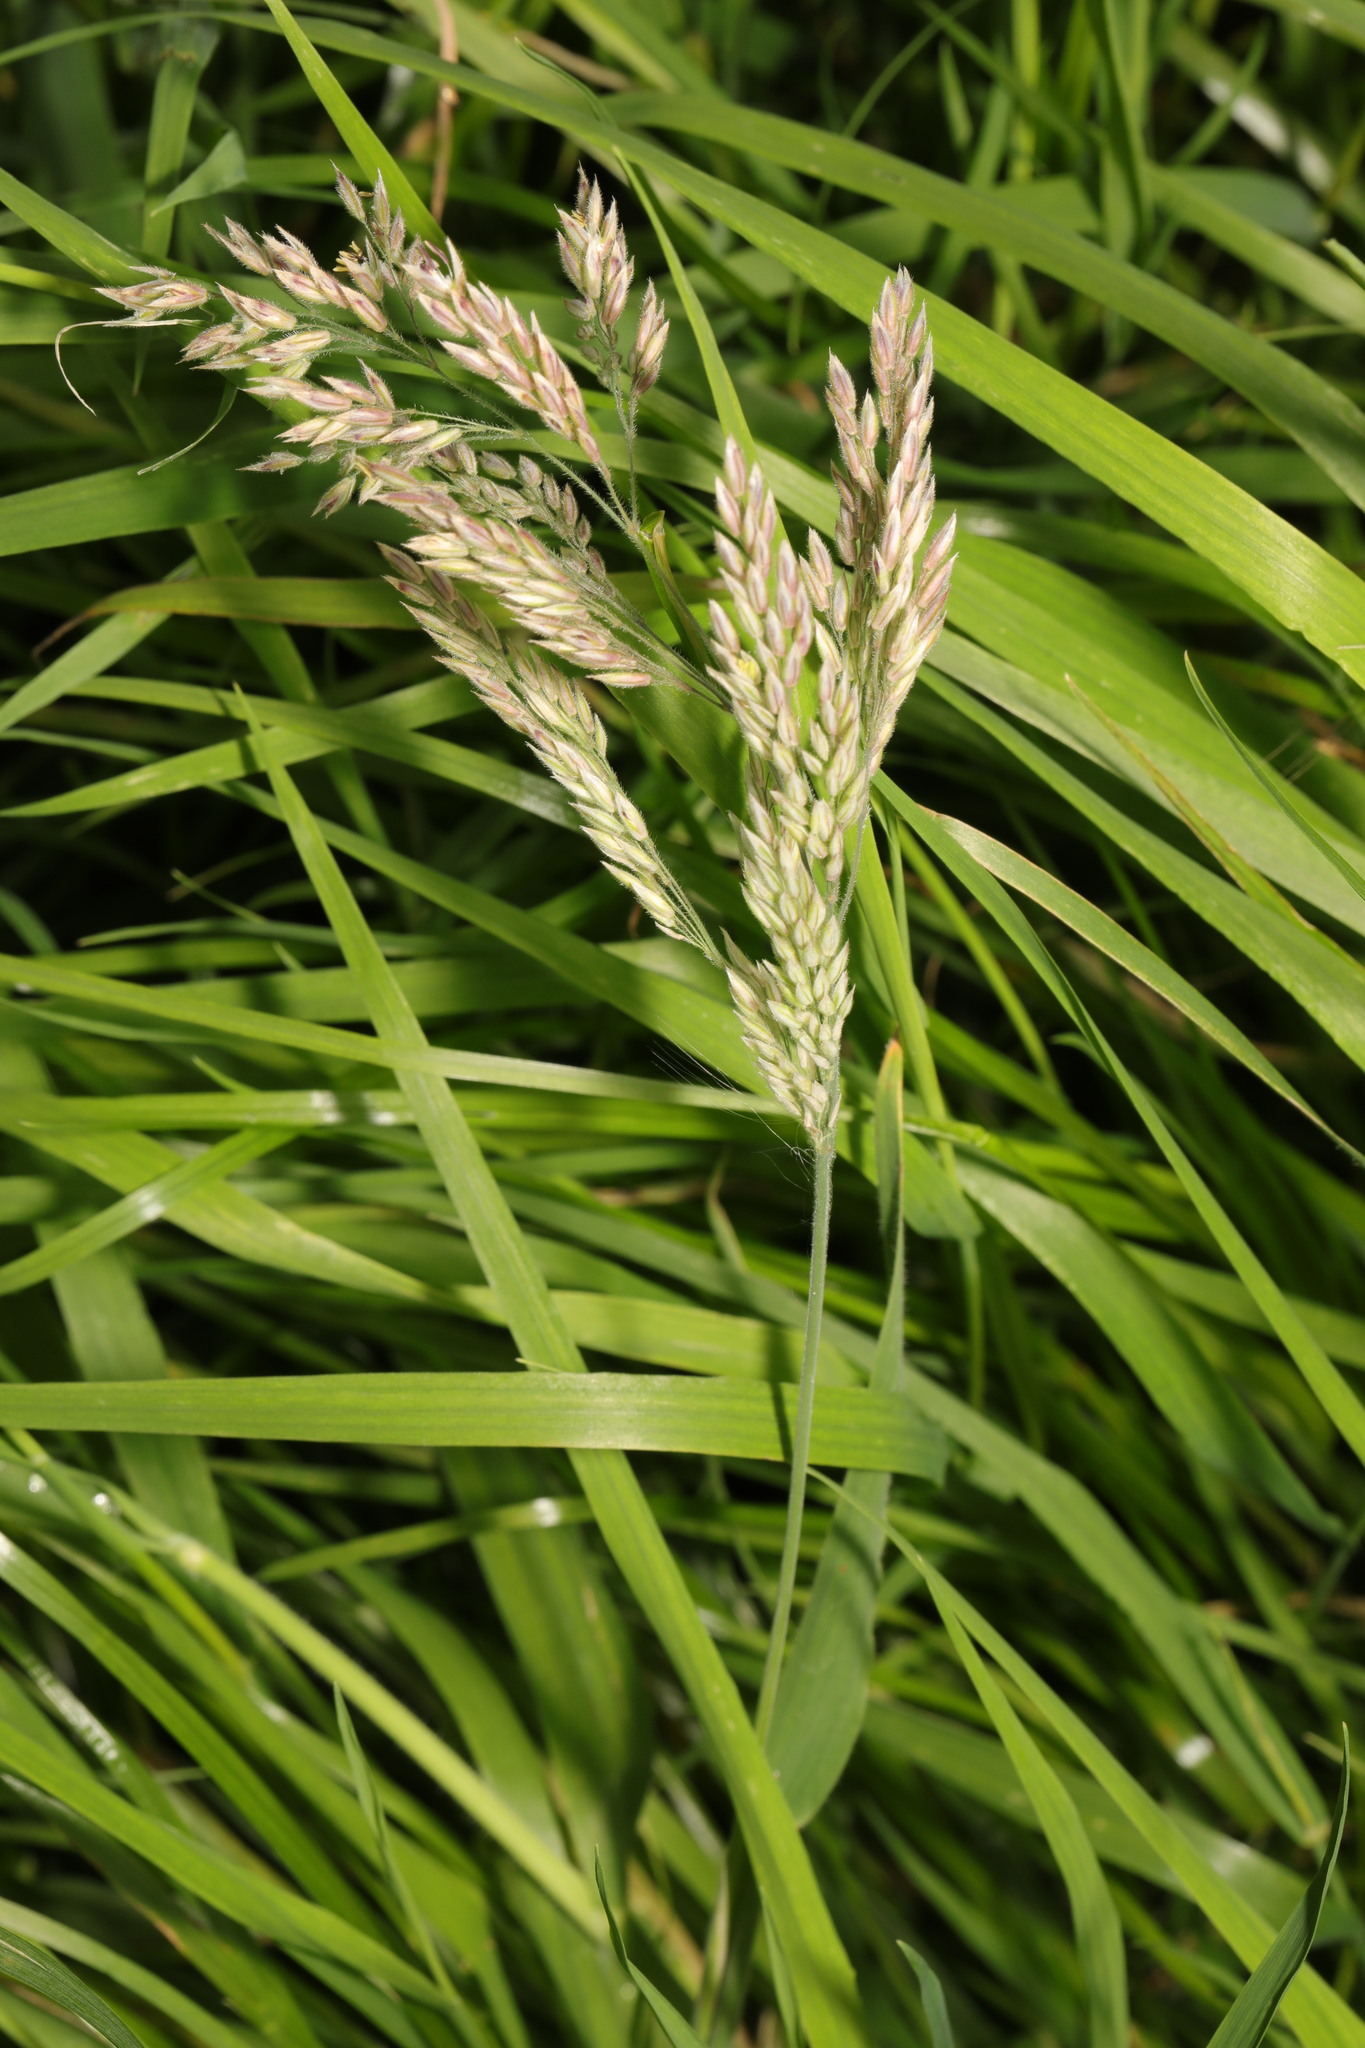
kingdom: Plantae
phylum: Tracheophyta
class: Liliopsida
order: Poales
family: Poaceae
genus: Holcus
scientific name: Holcus lanatus
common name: Yorkshire-fog
